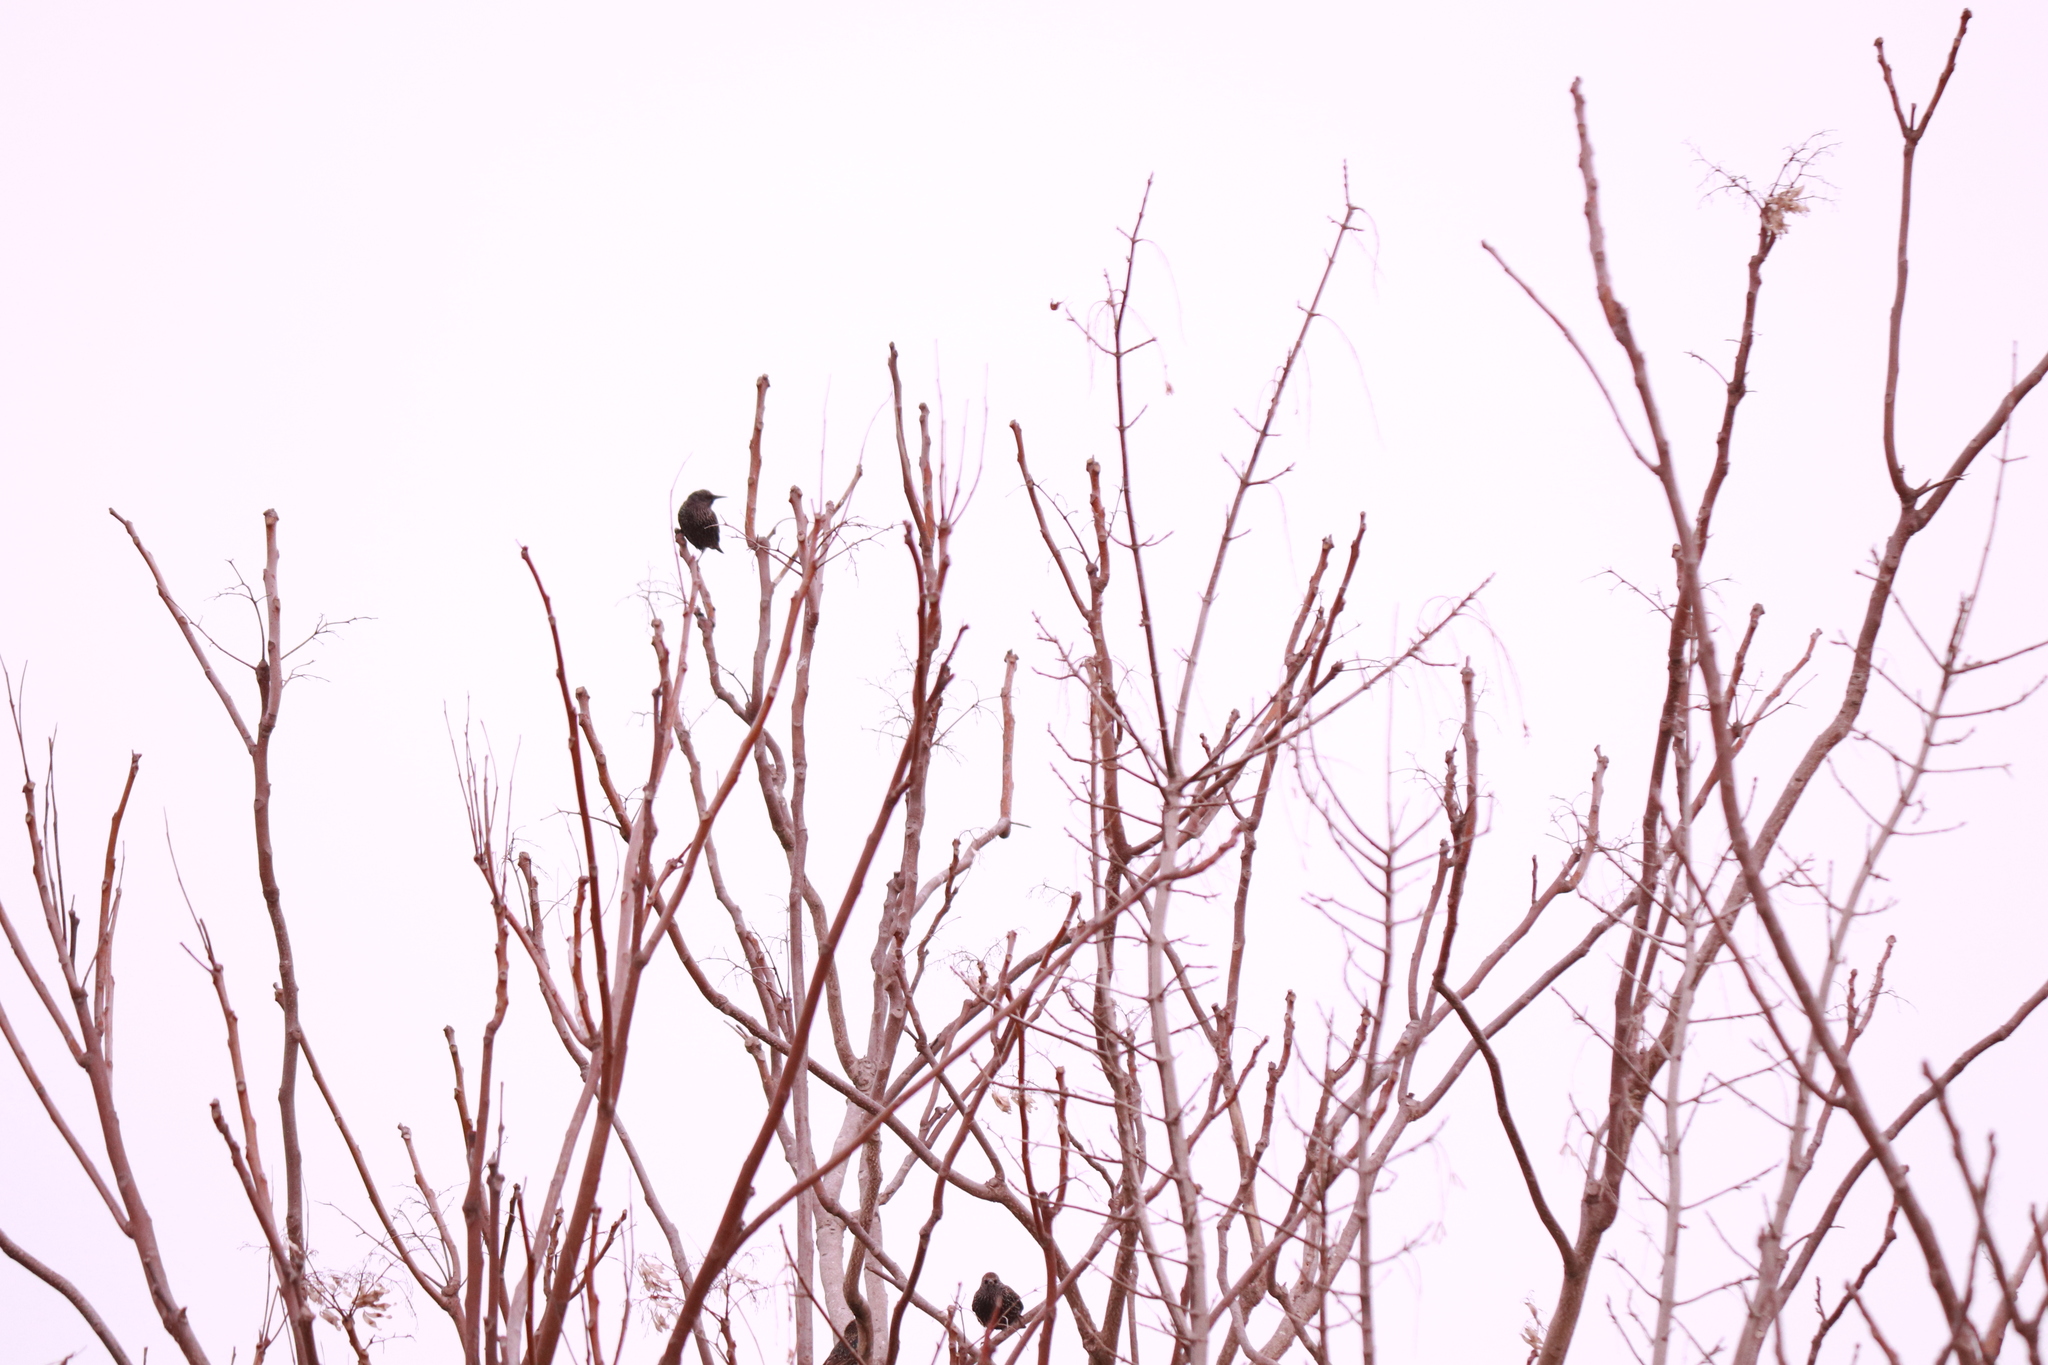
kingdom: Animalia
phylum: Chordata
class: Aves
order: Passeriformes
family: Sturnidae
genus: Sturnus
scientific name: Sturnus vulgaris
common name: Common starling
